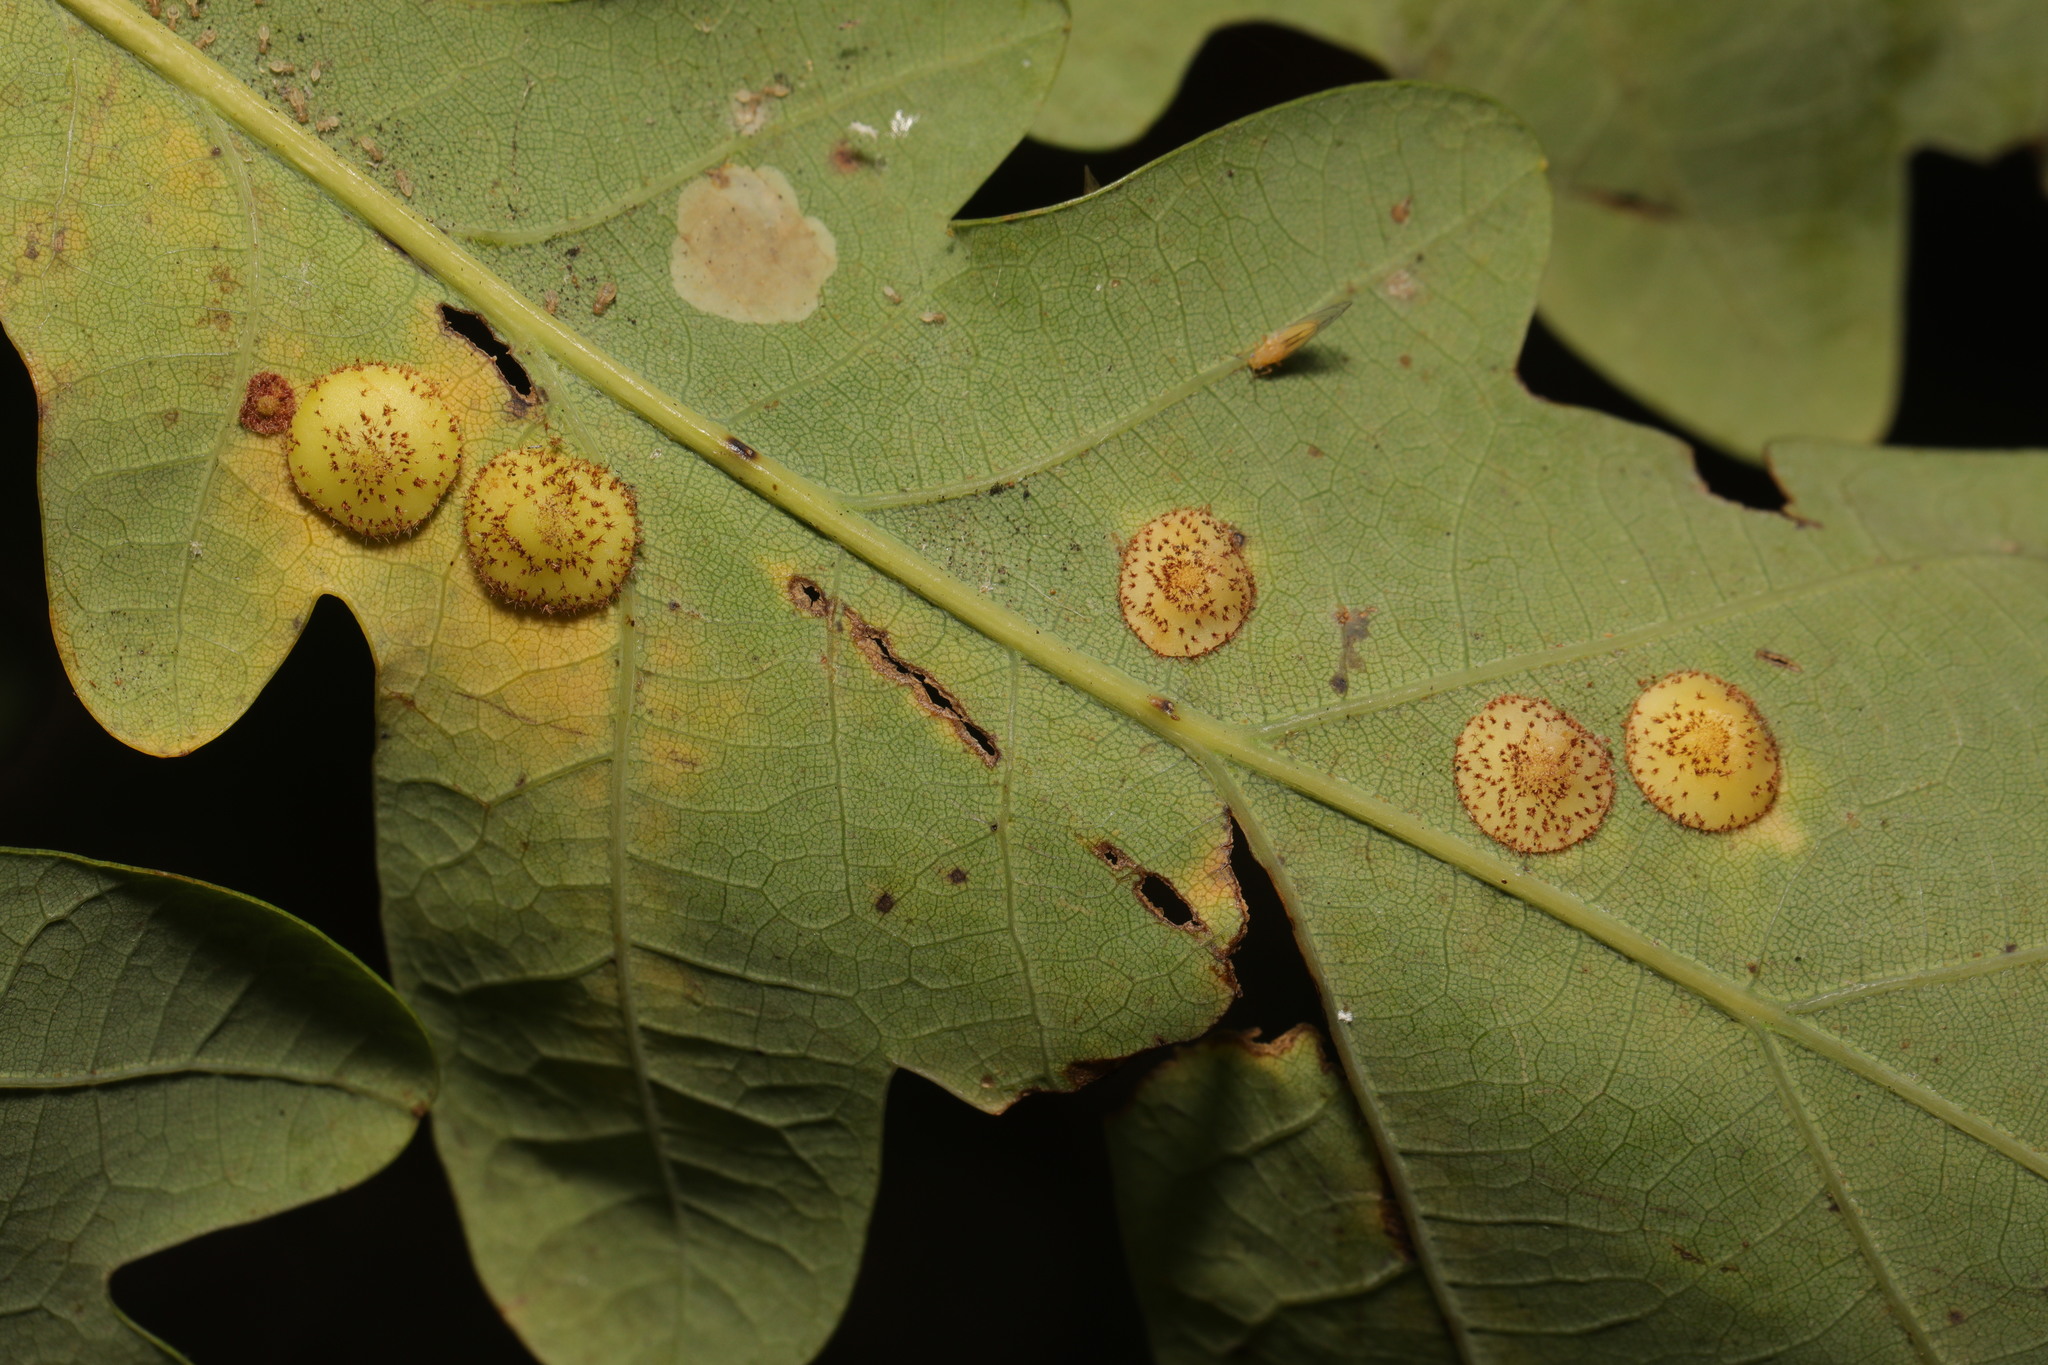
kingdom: Animalia
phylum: Arthropoda
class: Insecta
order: Hymenoptera
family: Cynipidae
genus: Neuroterus
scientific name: Neuroterus quercusbaccarum
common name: Common spangle gall
